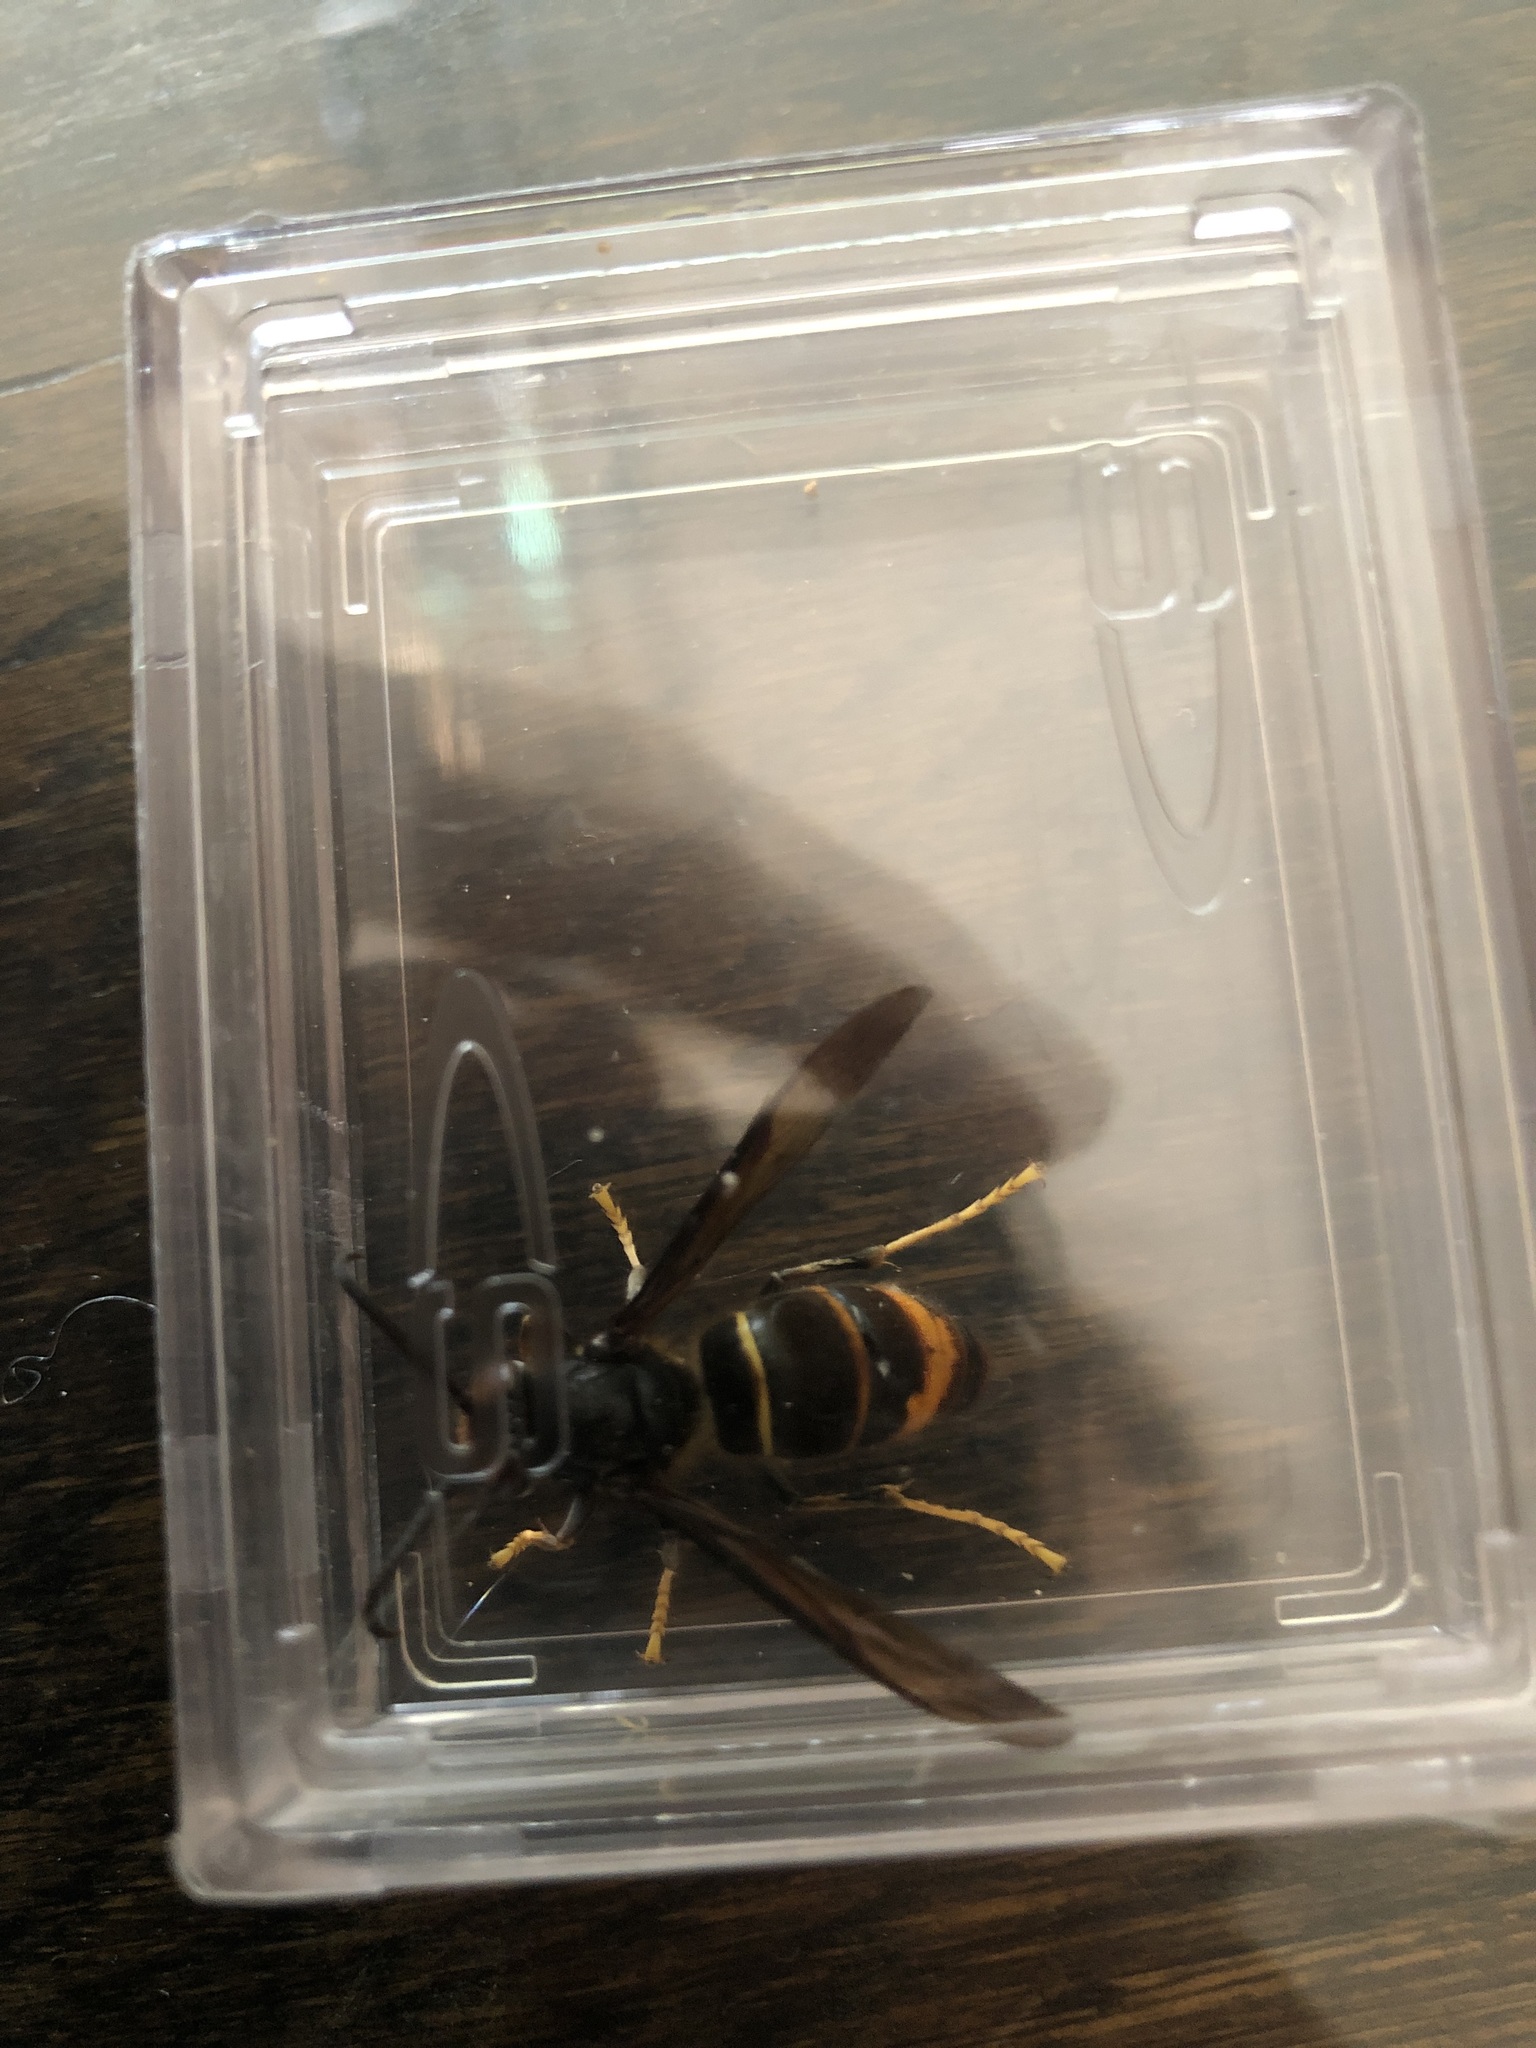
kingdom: Animalia
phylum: Arthropoda
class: Insecta
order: Hymenoptera
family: Vespidae
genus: Vespa
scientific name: Vespa velutina
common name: Asian hornet
